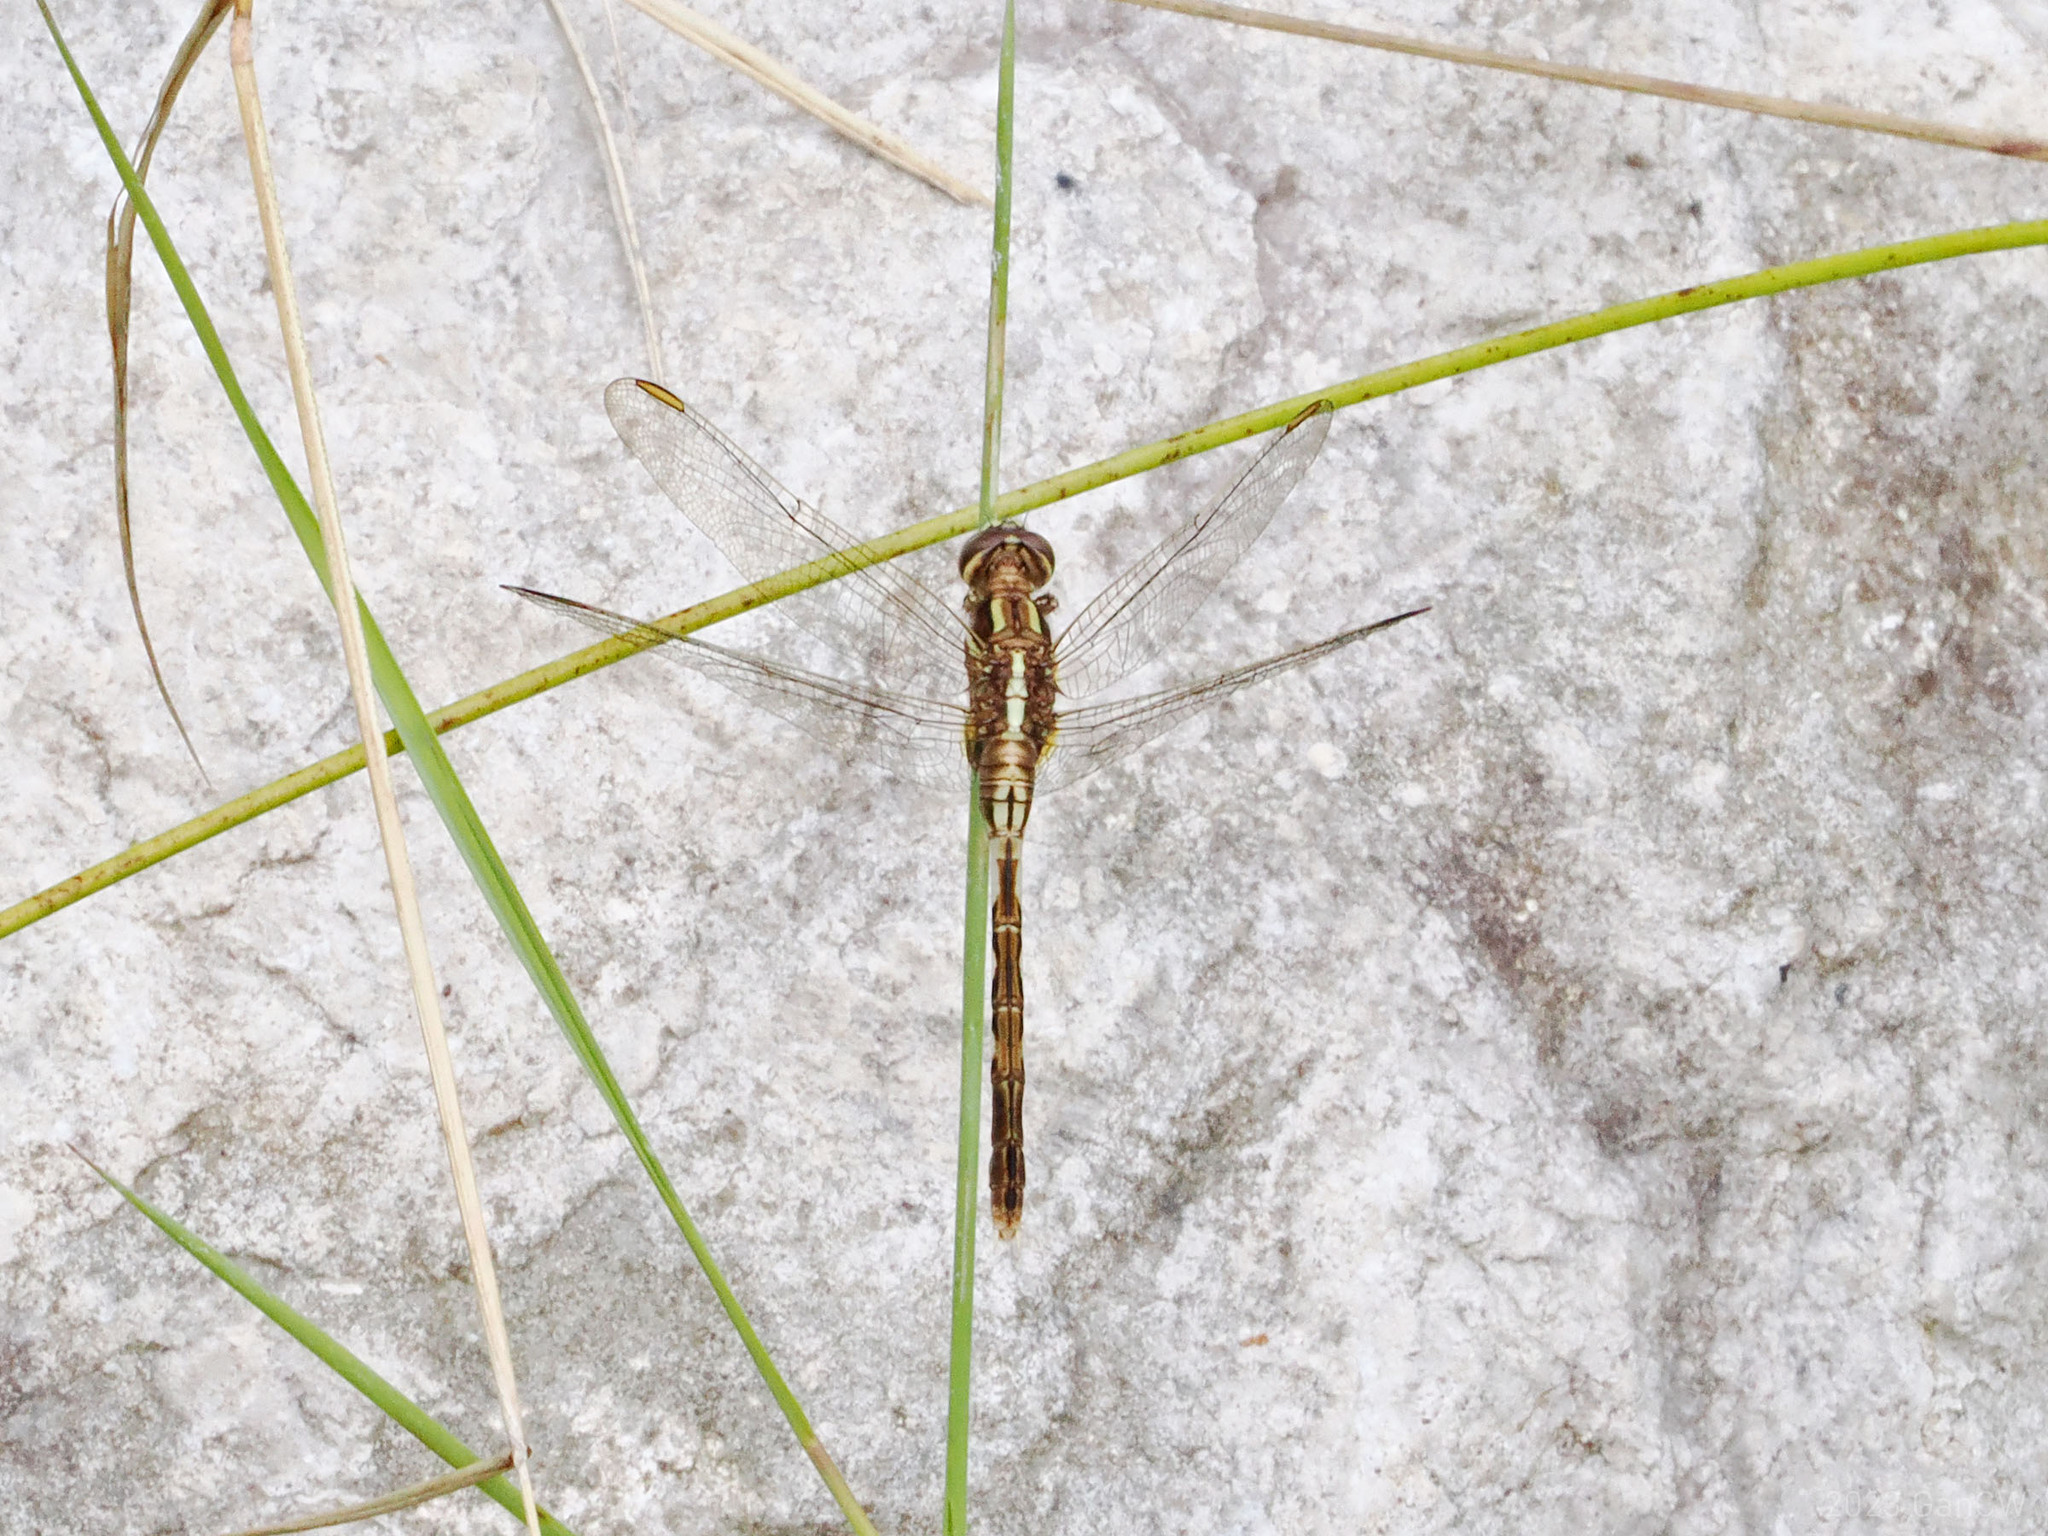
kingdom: Animalia
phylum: Arthropoda
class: Insecta
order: Odonata
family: Libellulidae
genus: Orthetrum
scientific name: Orthetrum sabina
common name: Slender skimmer
